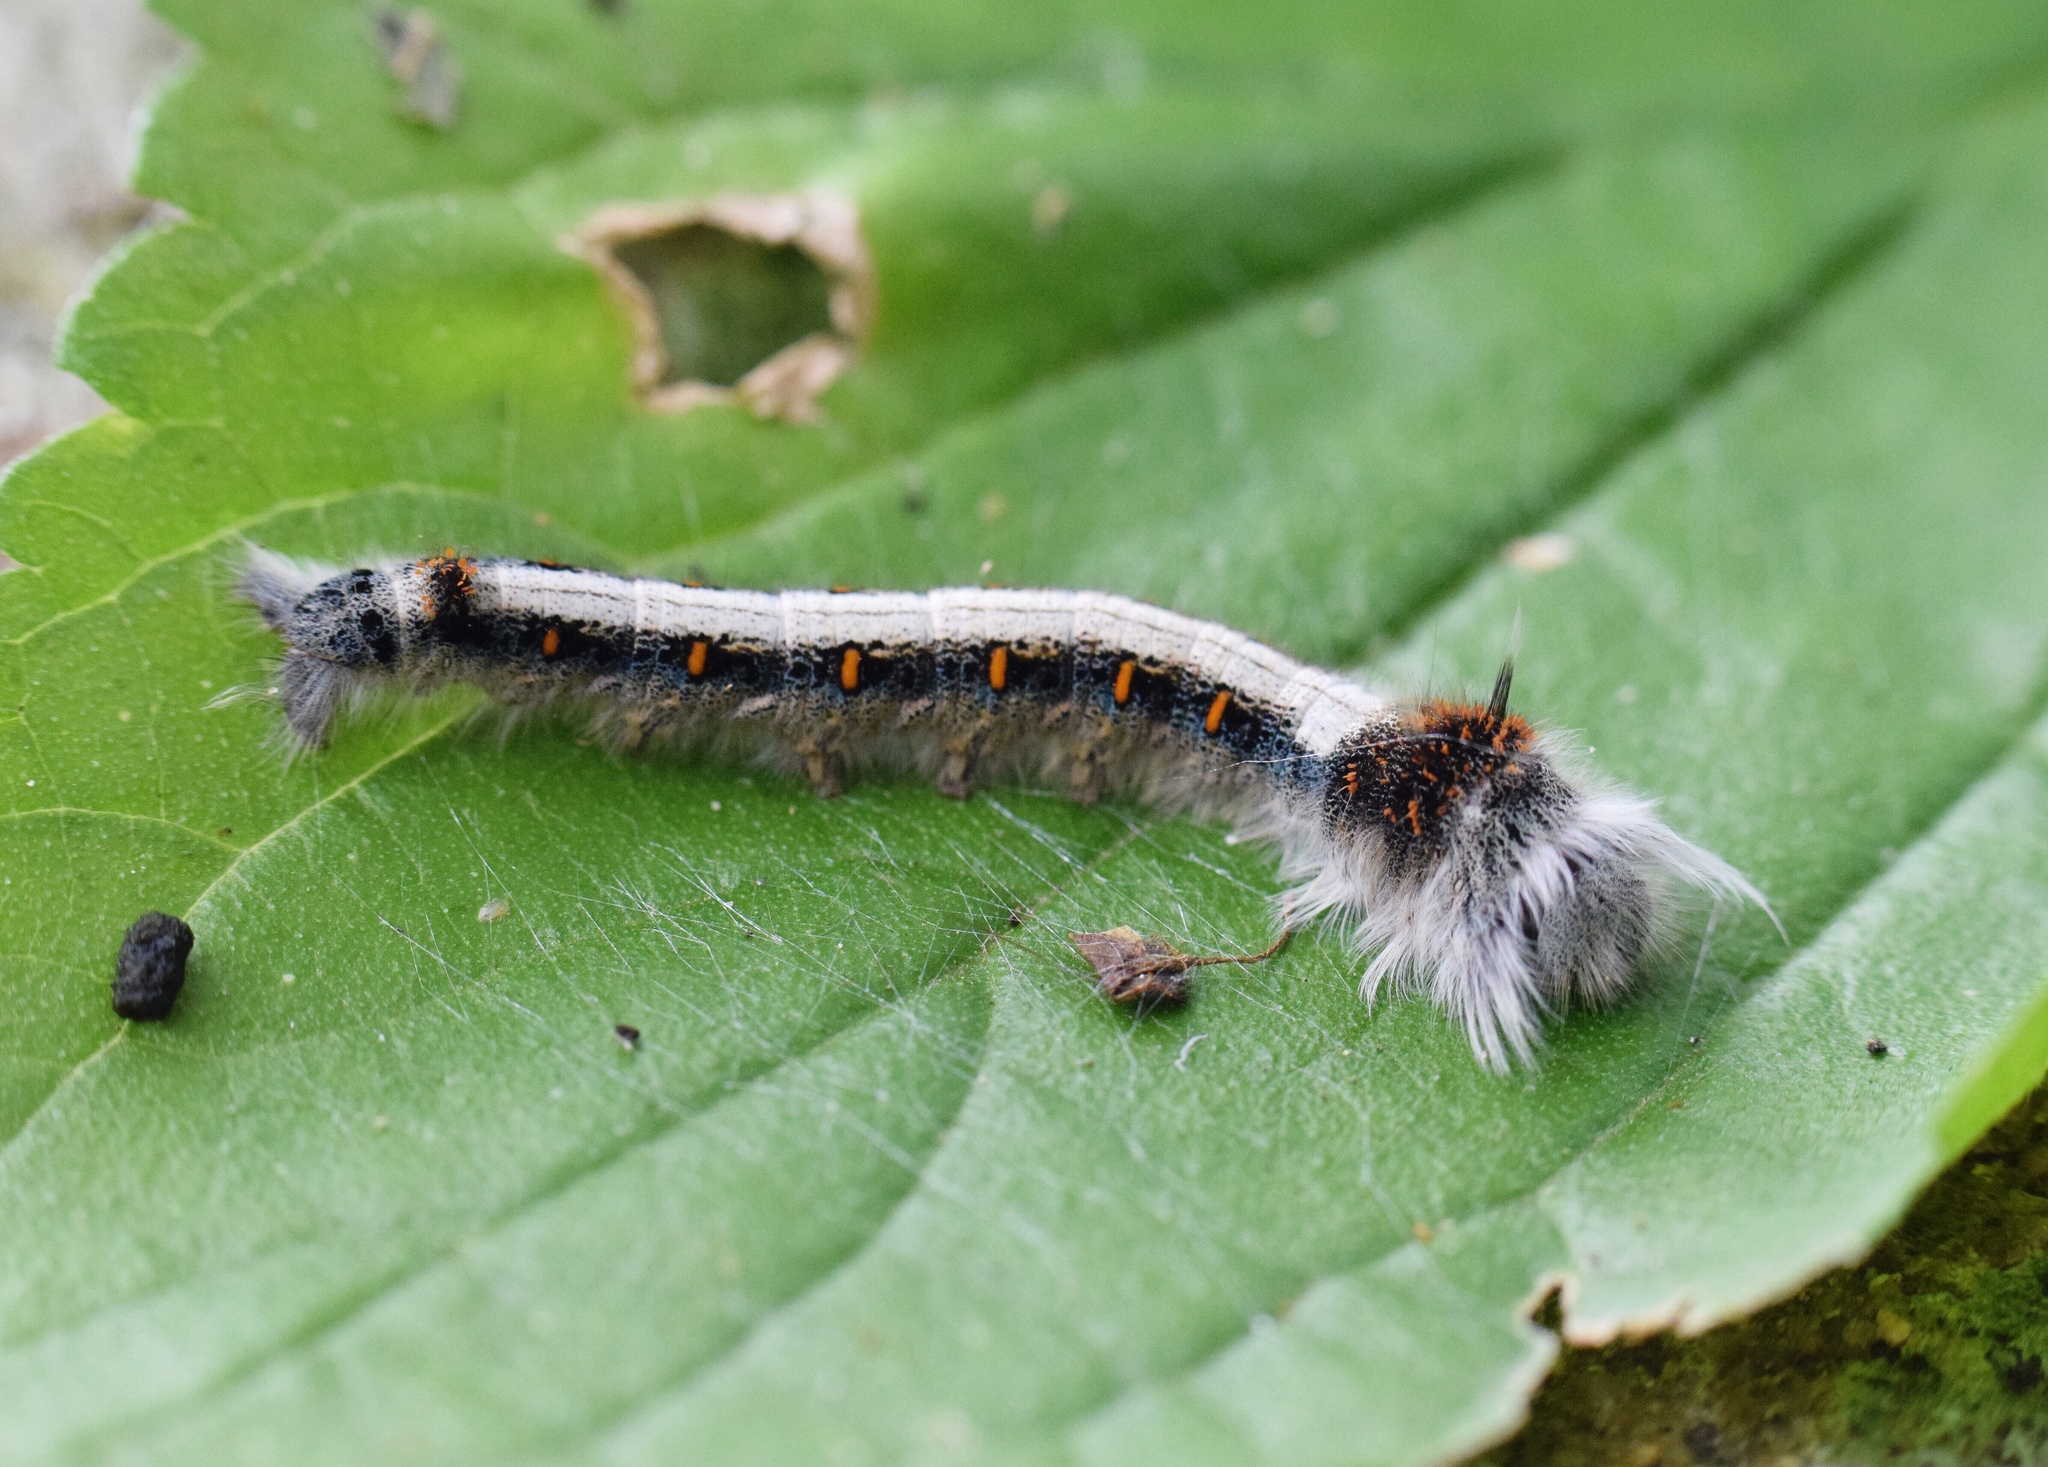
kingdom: Animalia
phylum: Arthropoda
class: Insecta
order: Lepidoptera
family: Lasiocampidae
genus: Leipoxais
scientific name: Leipoxais peraffinis
